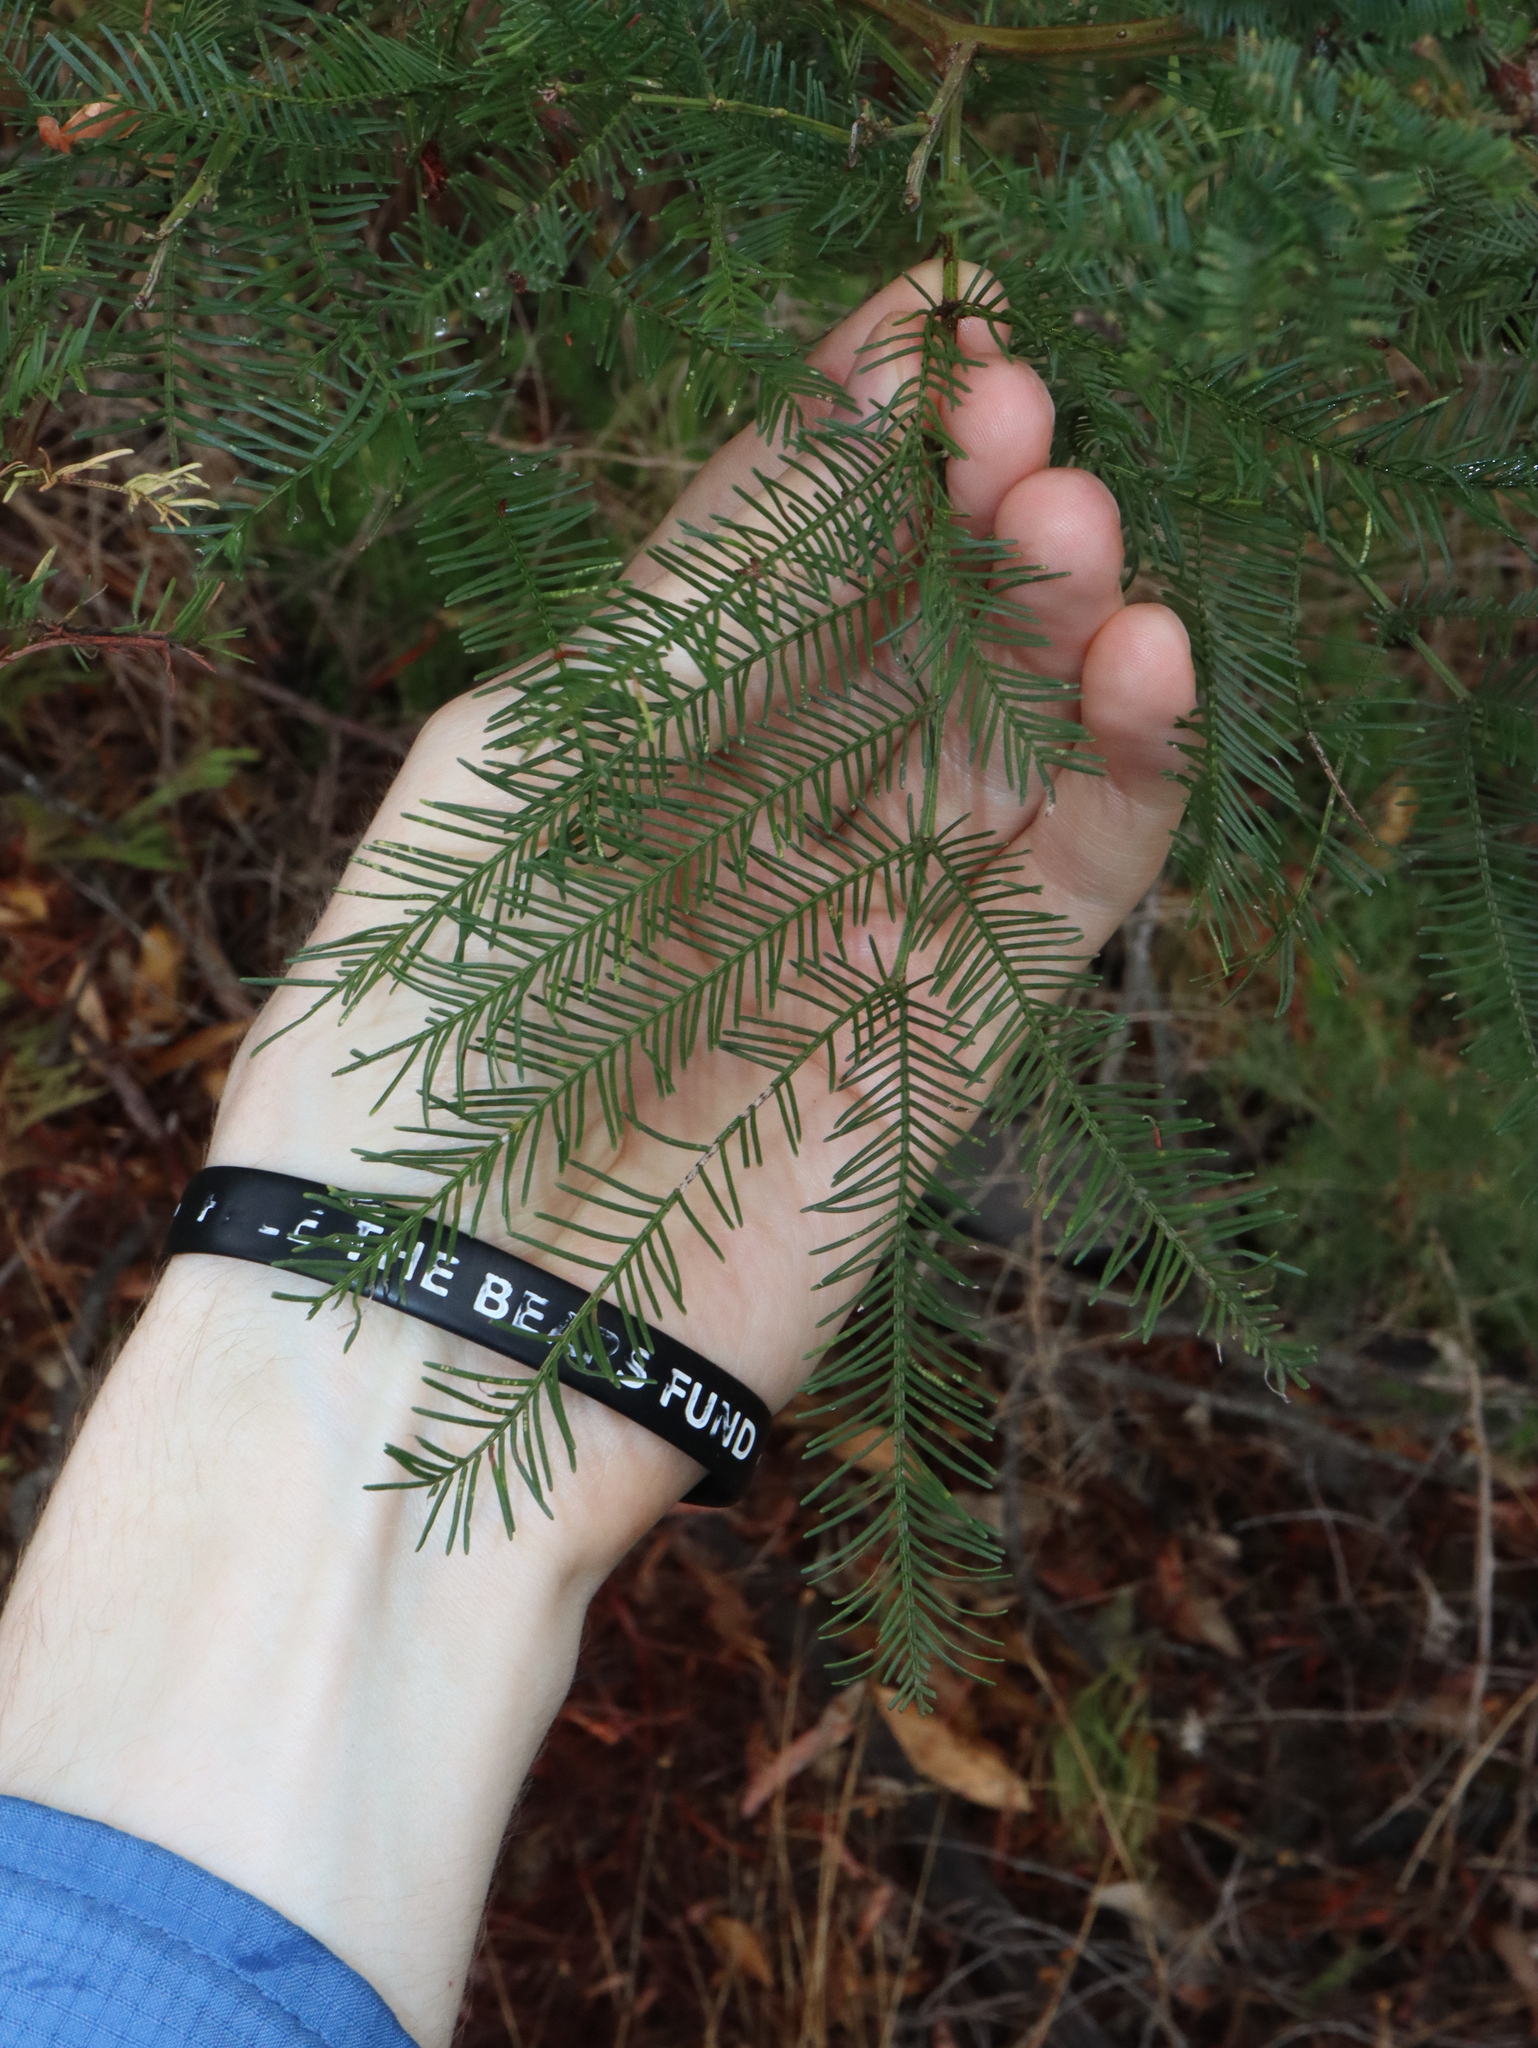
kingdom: Plantae
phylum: Tracheophyta
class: Magnoliopsida
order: Fabales
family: Fabaceae
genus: Acacia
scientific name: Acacia decurrens
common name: Green wattle
